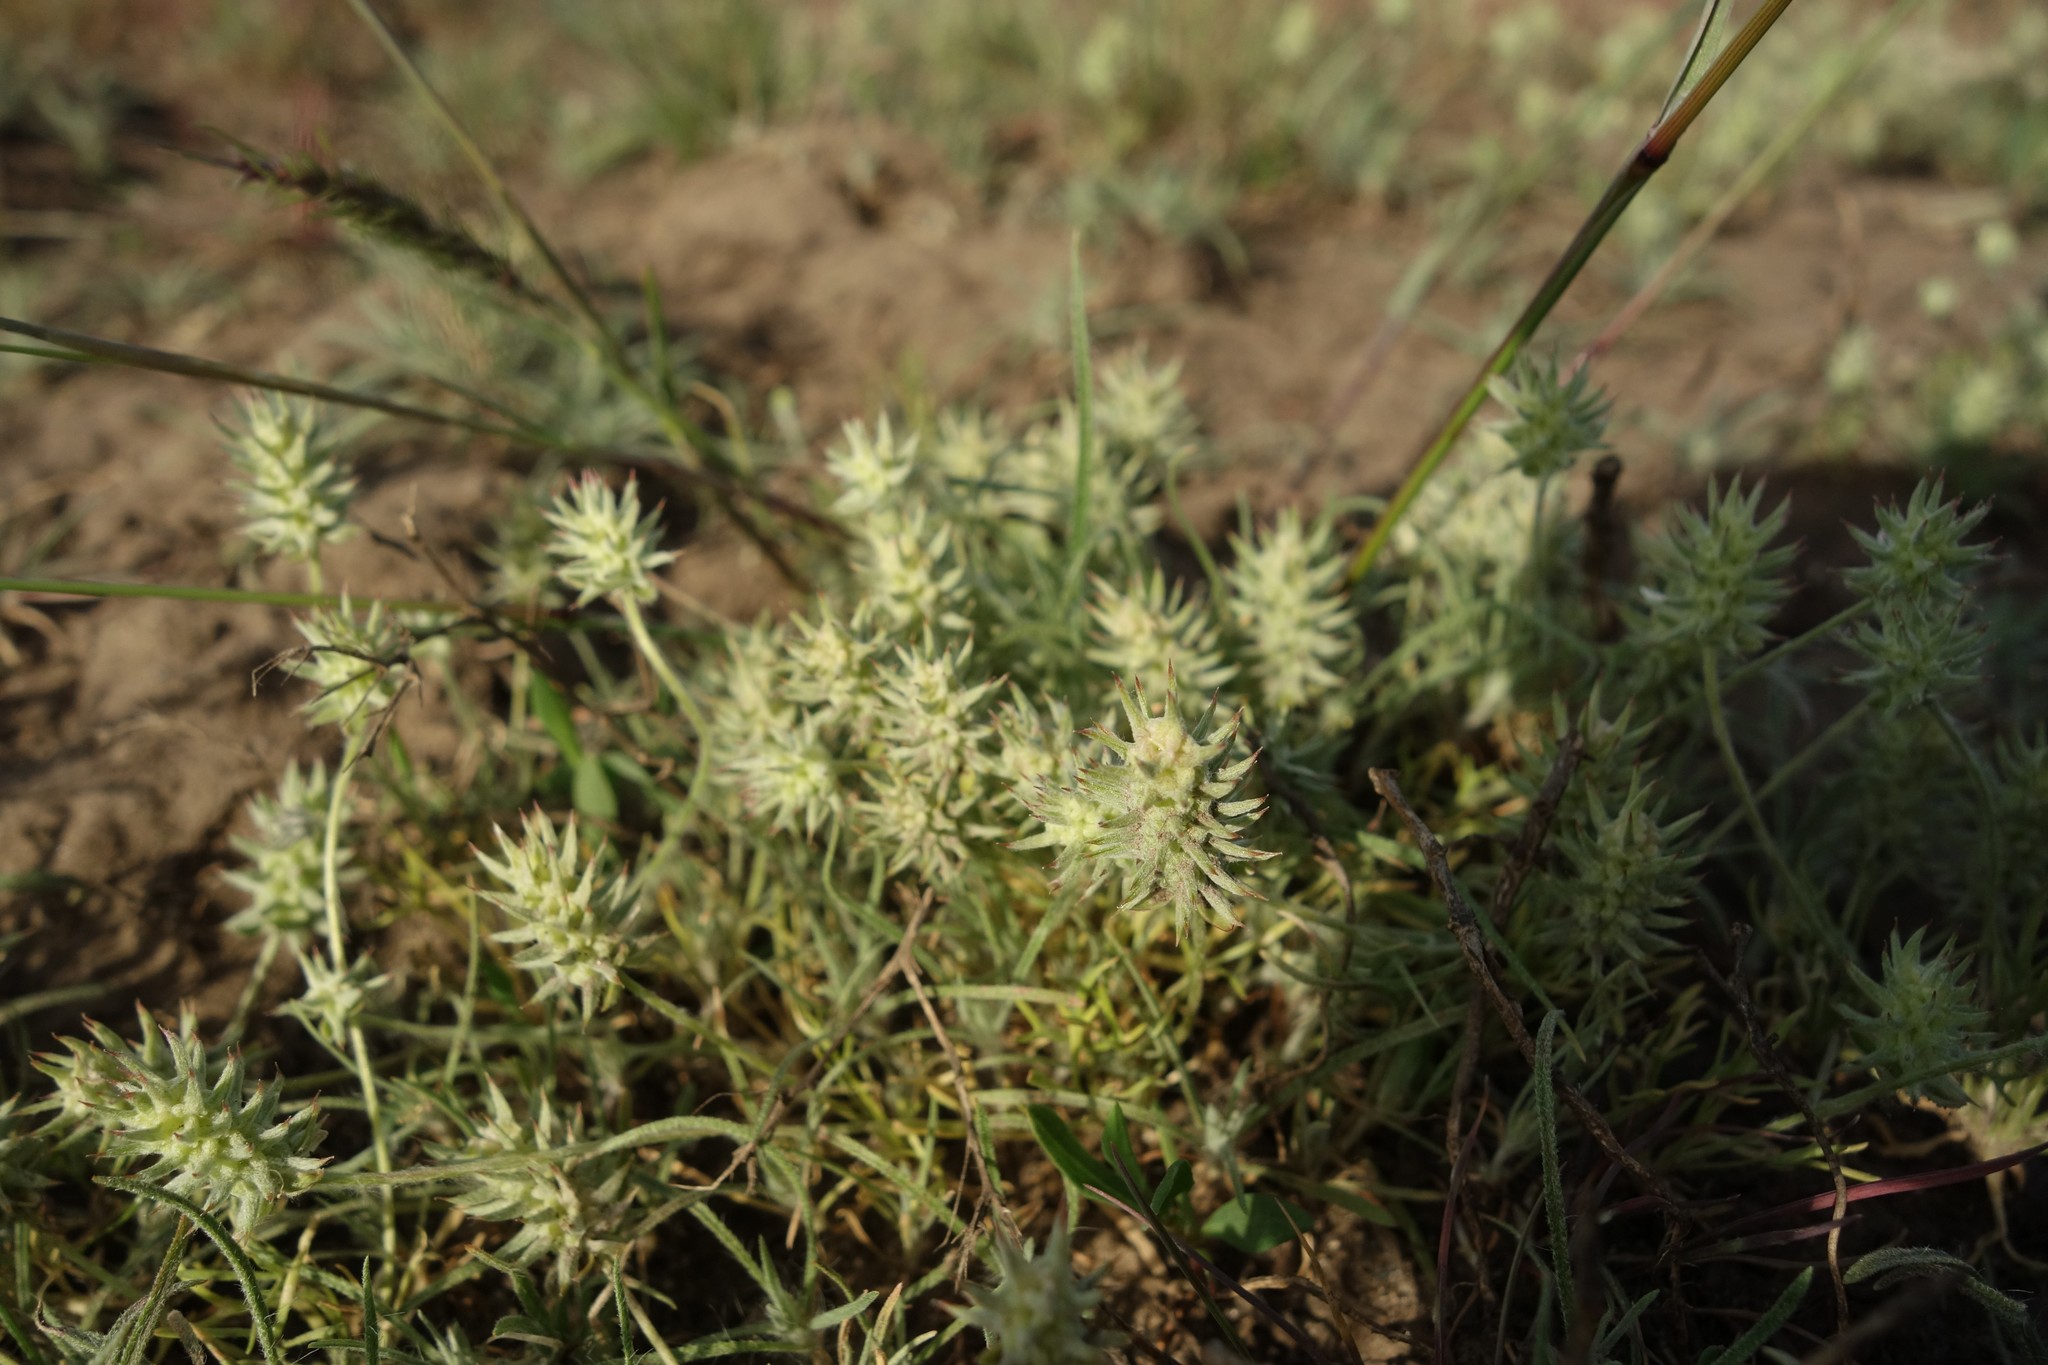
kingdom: Plantae
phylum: Tracheophyta
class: Magnoliopsida
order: Ranunculales
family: Ranunculaceae
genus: Ceratocephala
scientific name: Ceratocephala orthoceras
